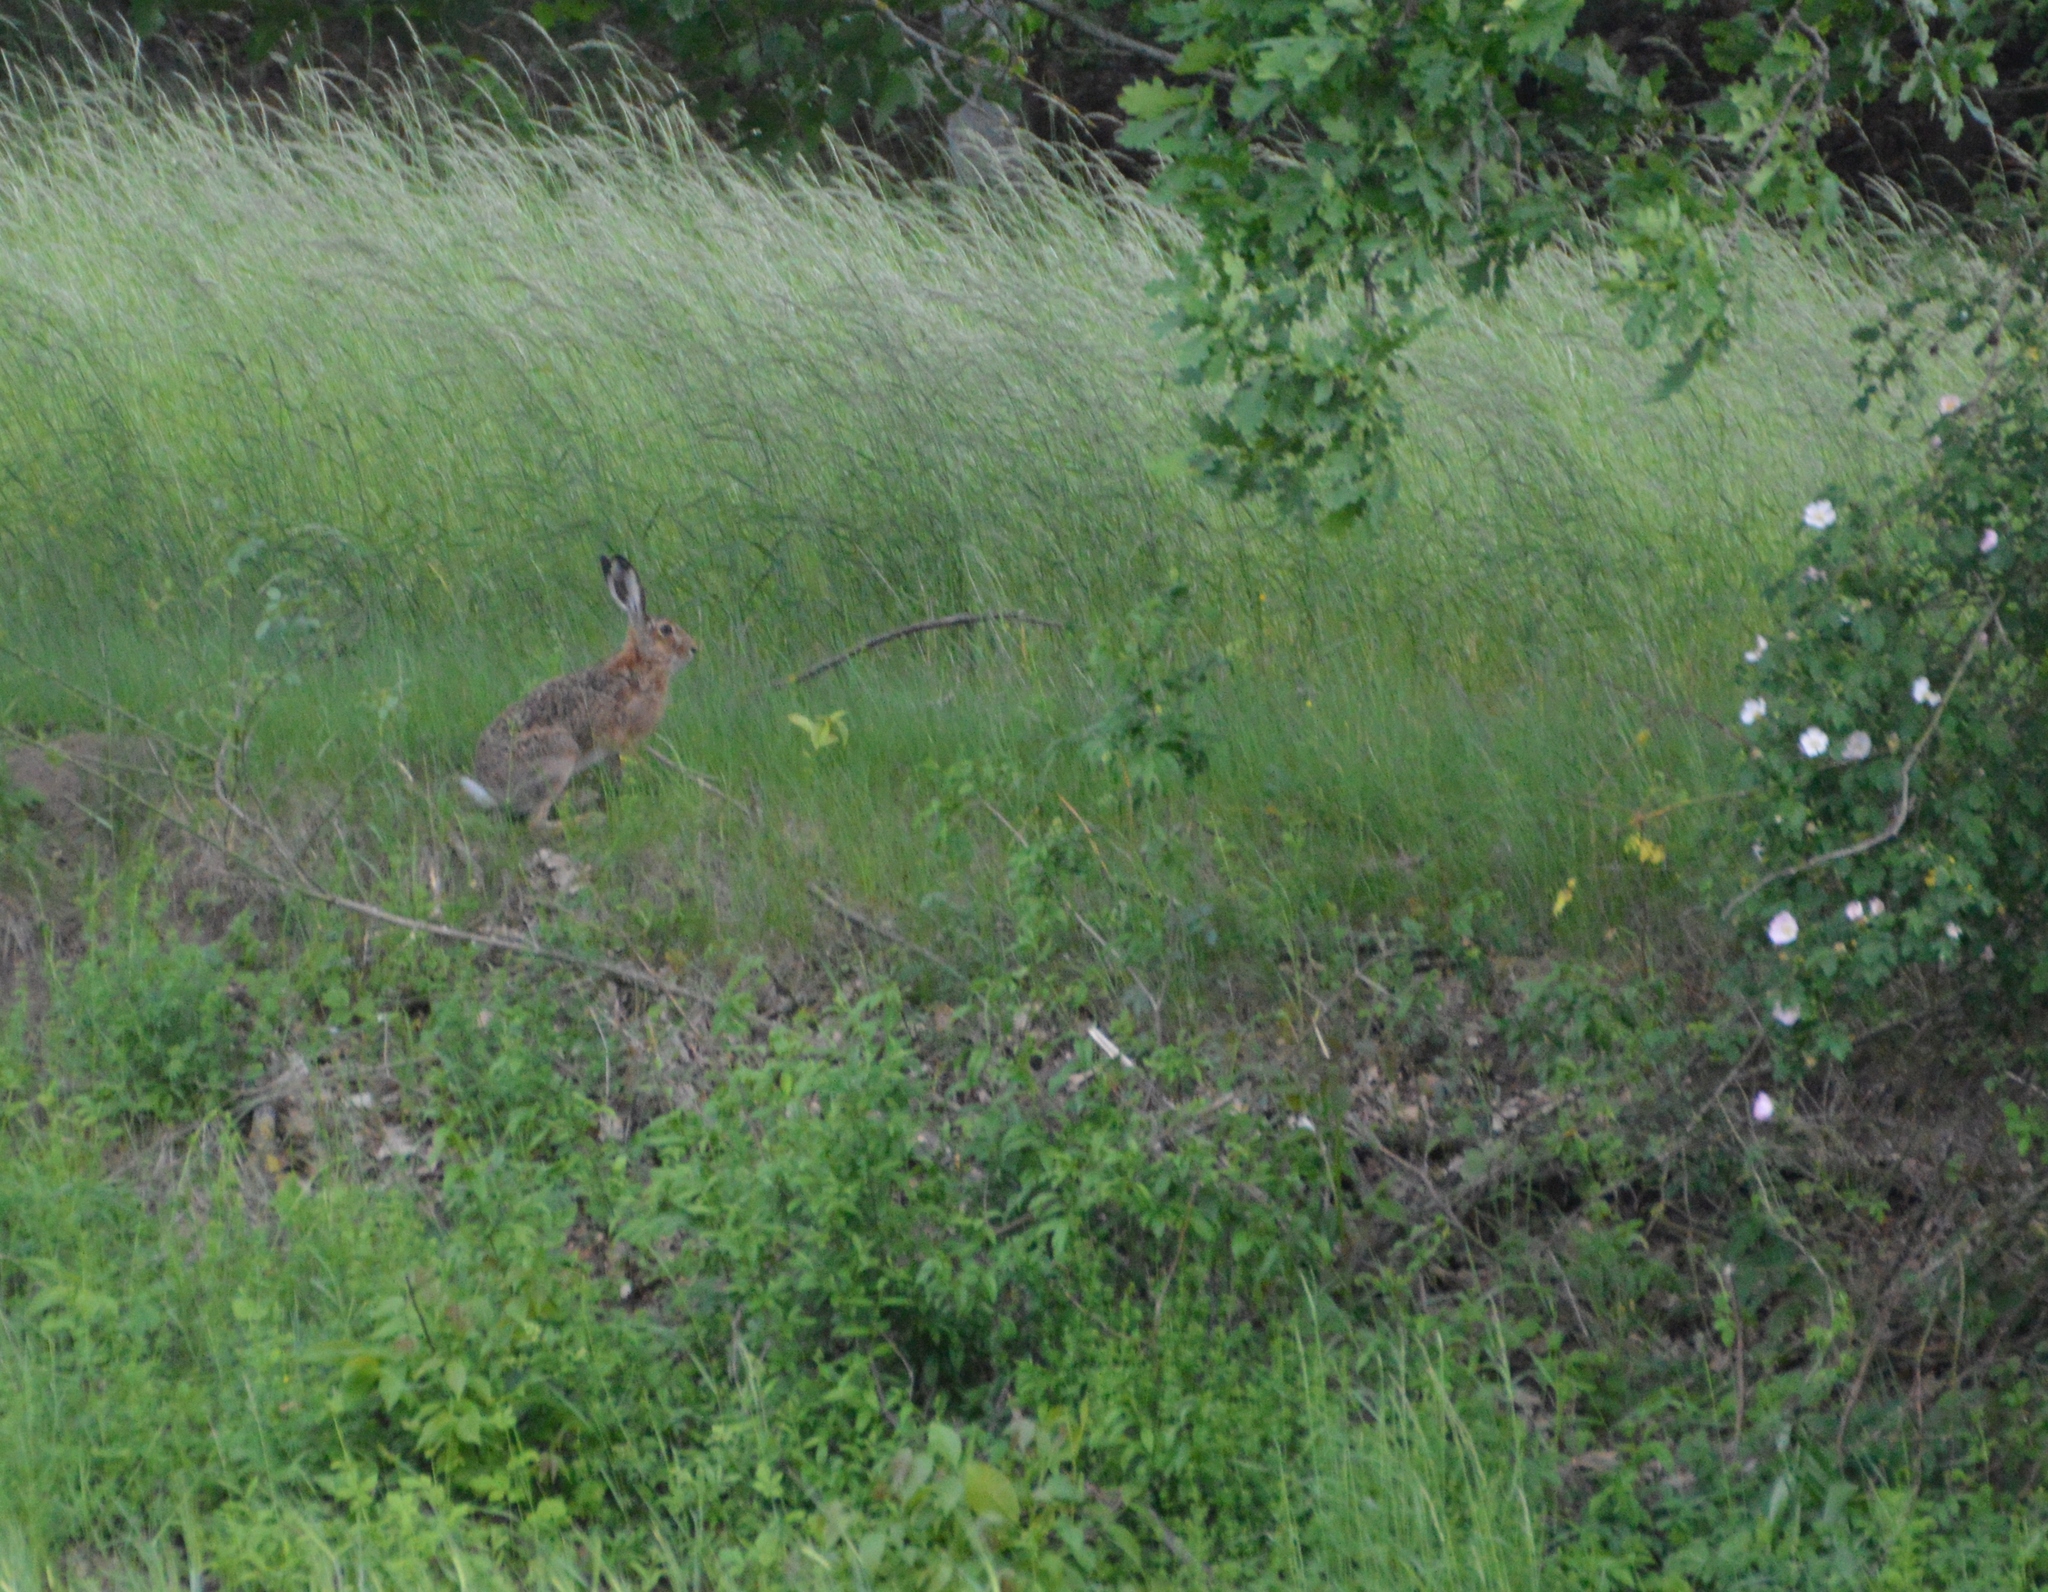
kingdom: Animalia
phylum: Chordata
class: Mammalia
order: Lagomorpha
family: Leporidae
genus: Lepus
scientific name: Lepus europaeus
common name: European hare
